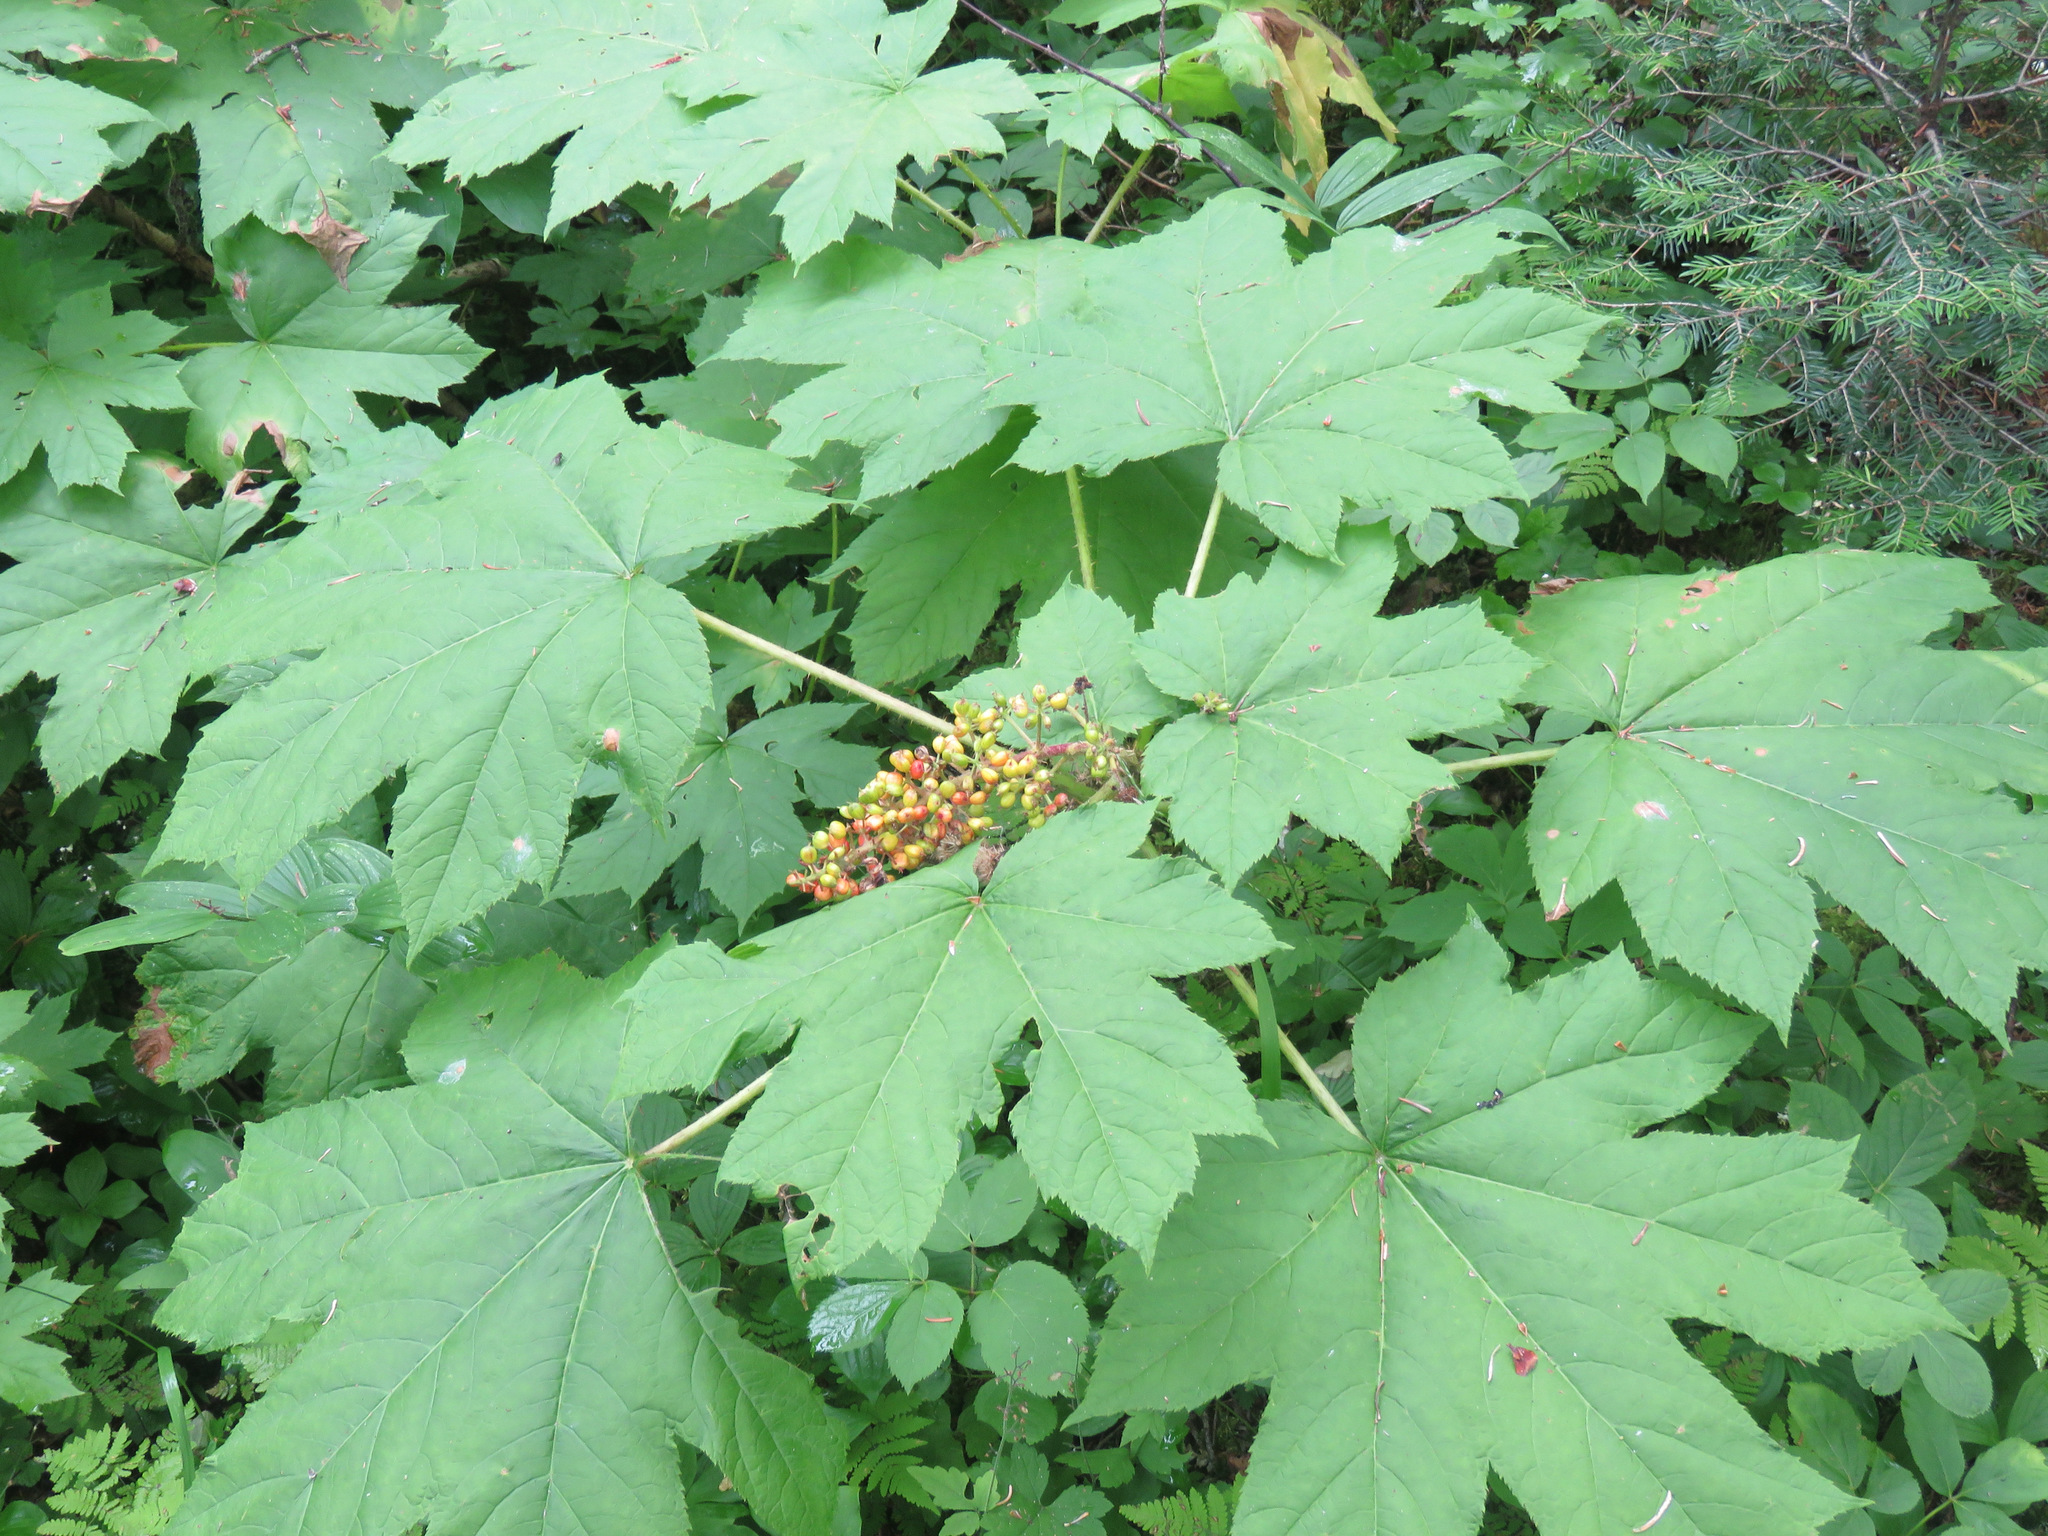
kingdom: Plantae
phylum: Tracheophyta
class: Magnoliopsida
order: Apiales
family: Araliaceae
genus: Oplopanax
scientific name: Oplopanax horridus
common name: Devil's walking-stick
